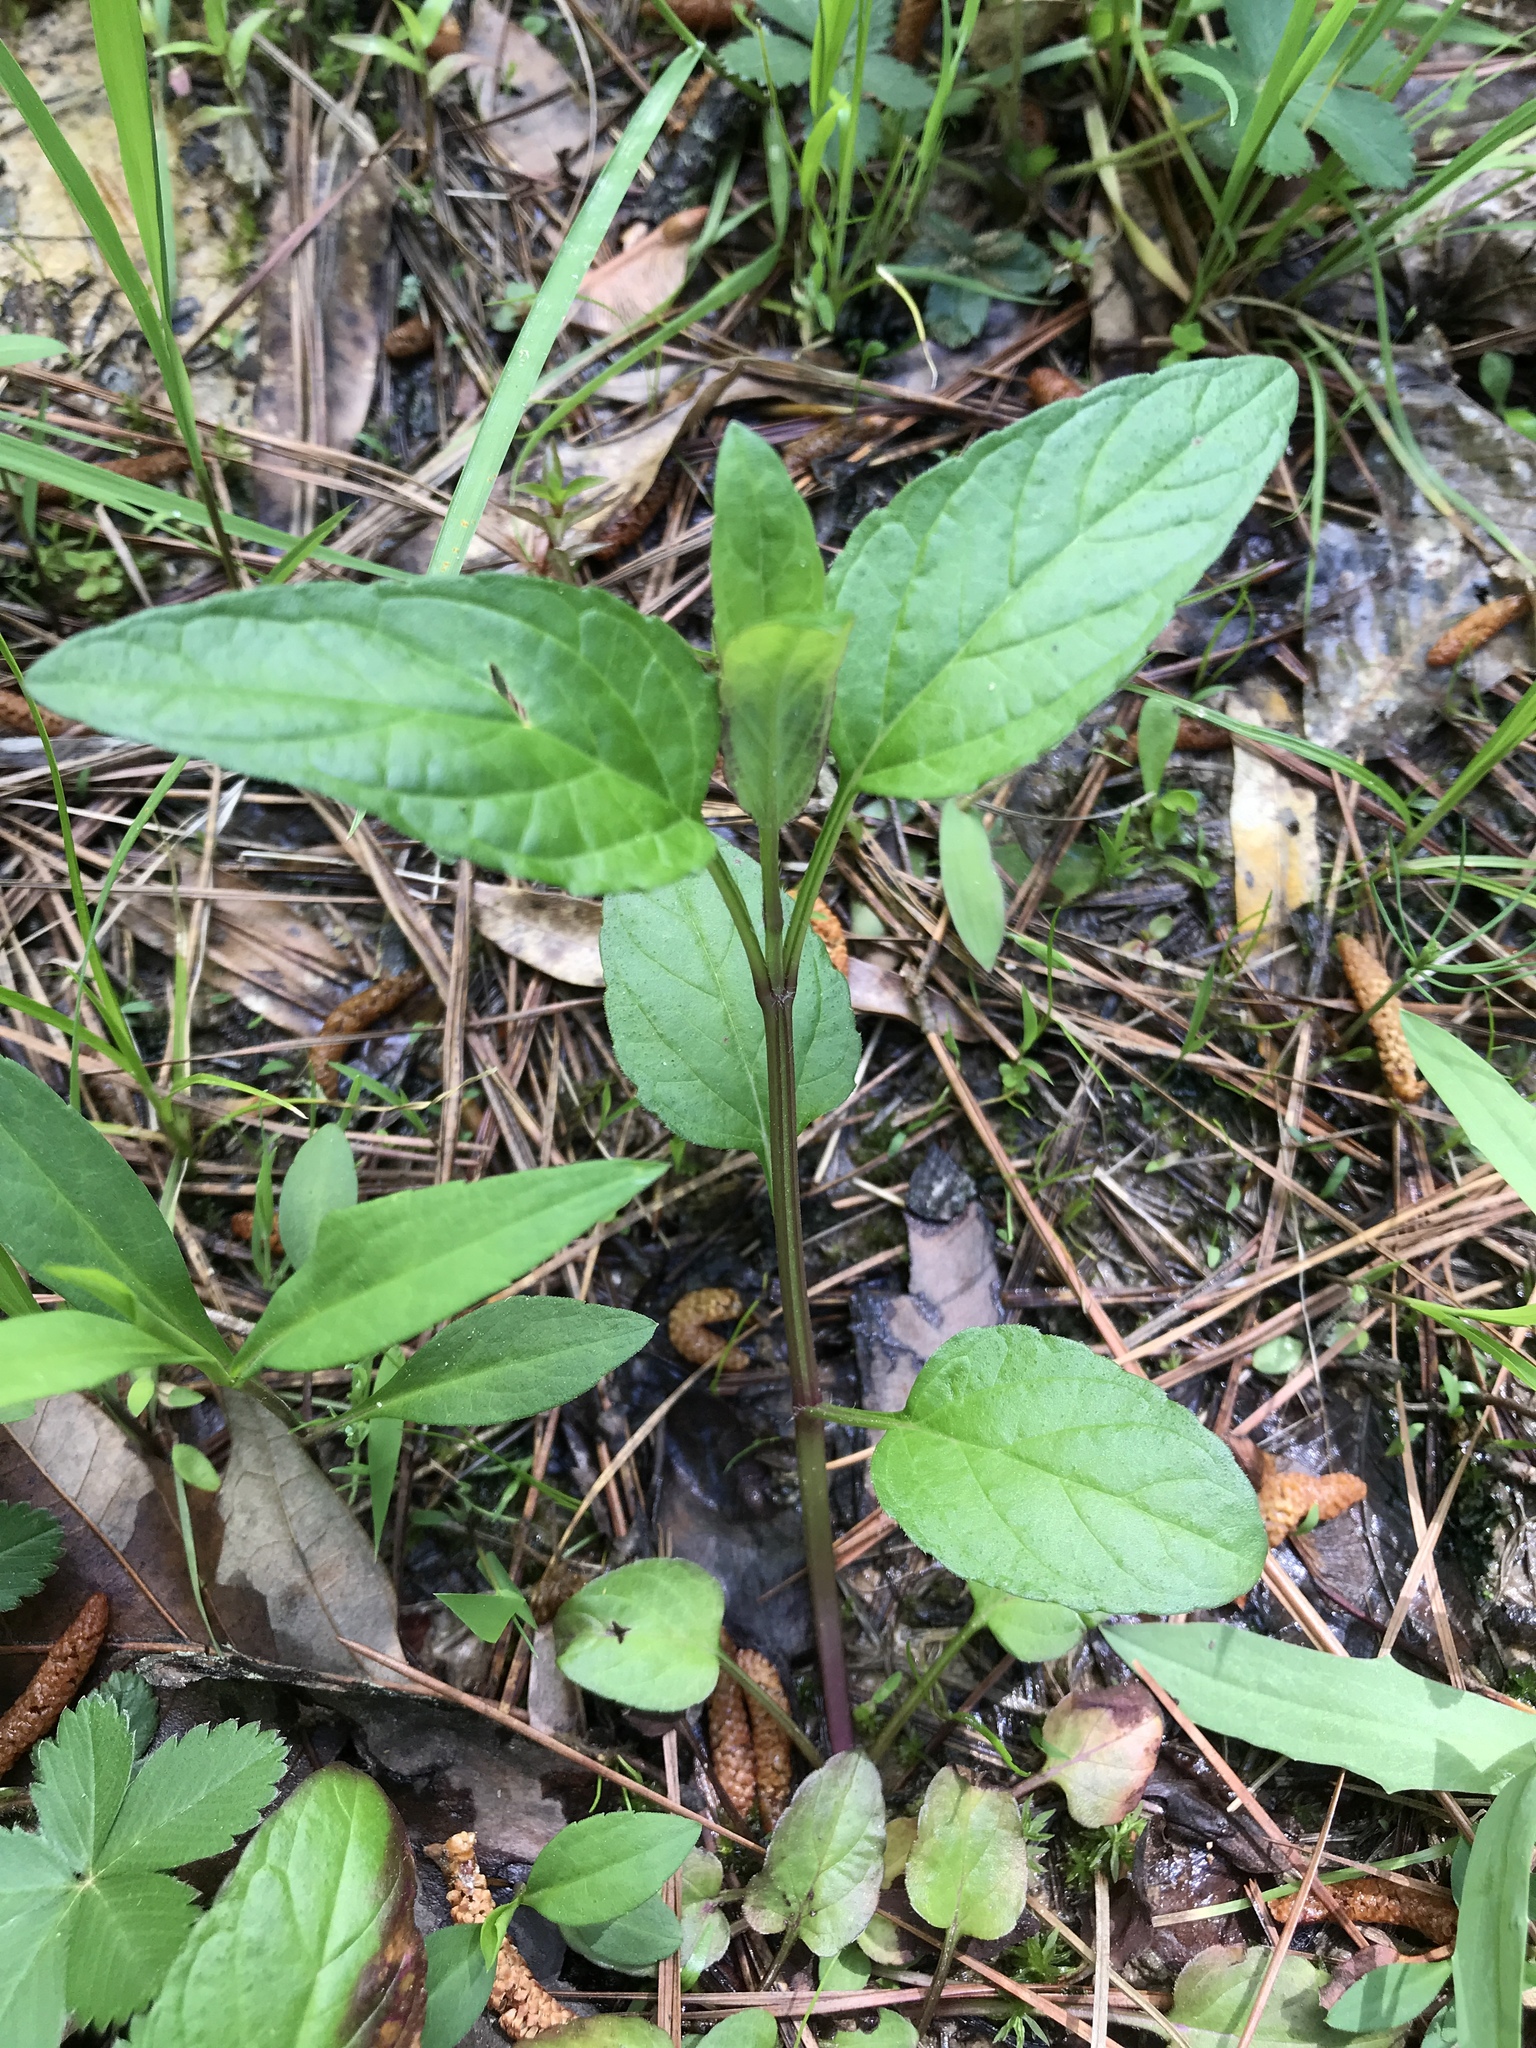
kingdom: Plantae
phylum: Tracheophyta
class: Magnoliopsida
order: Lamiales
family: Lamiaceae
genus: Prunella
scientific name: Prunella vulgaris
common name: Heal-all
